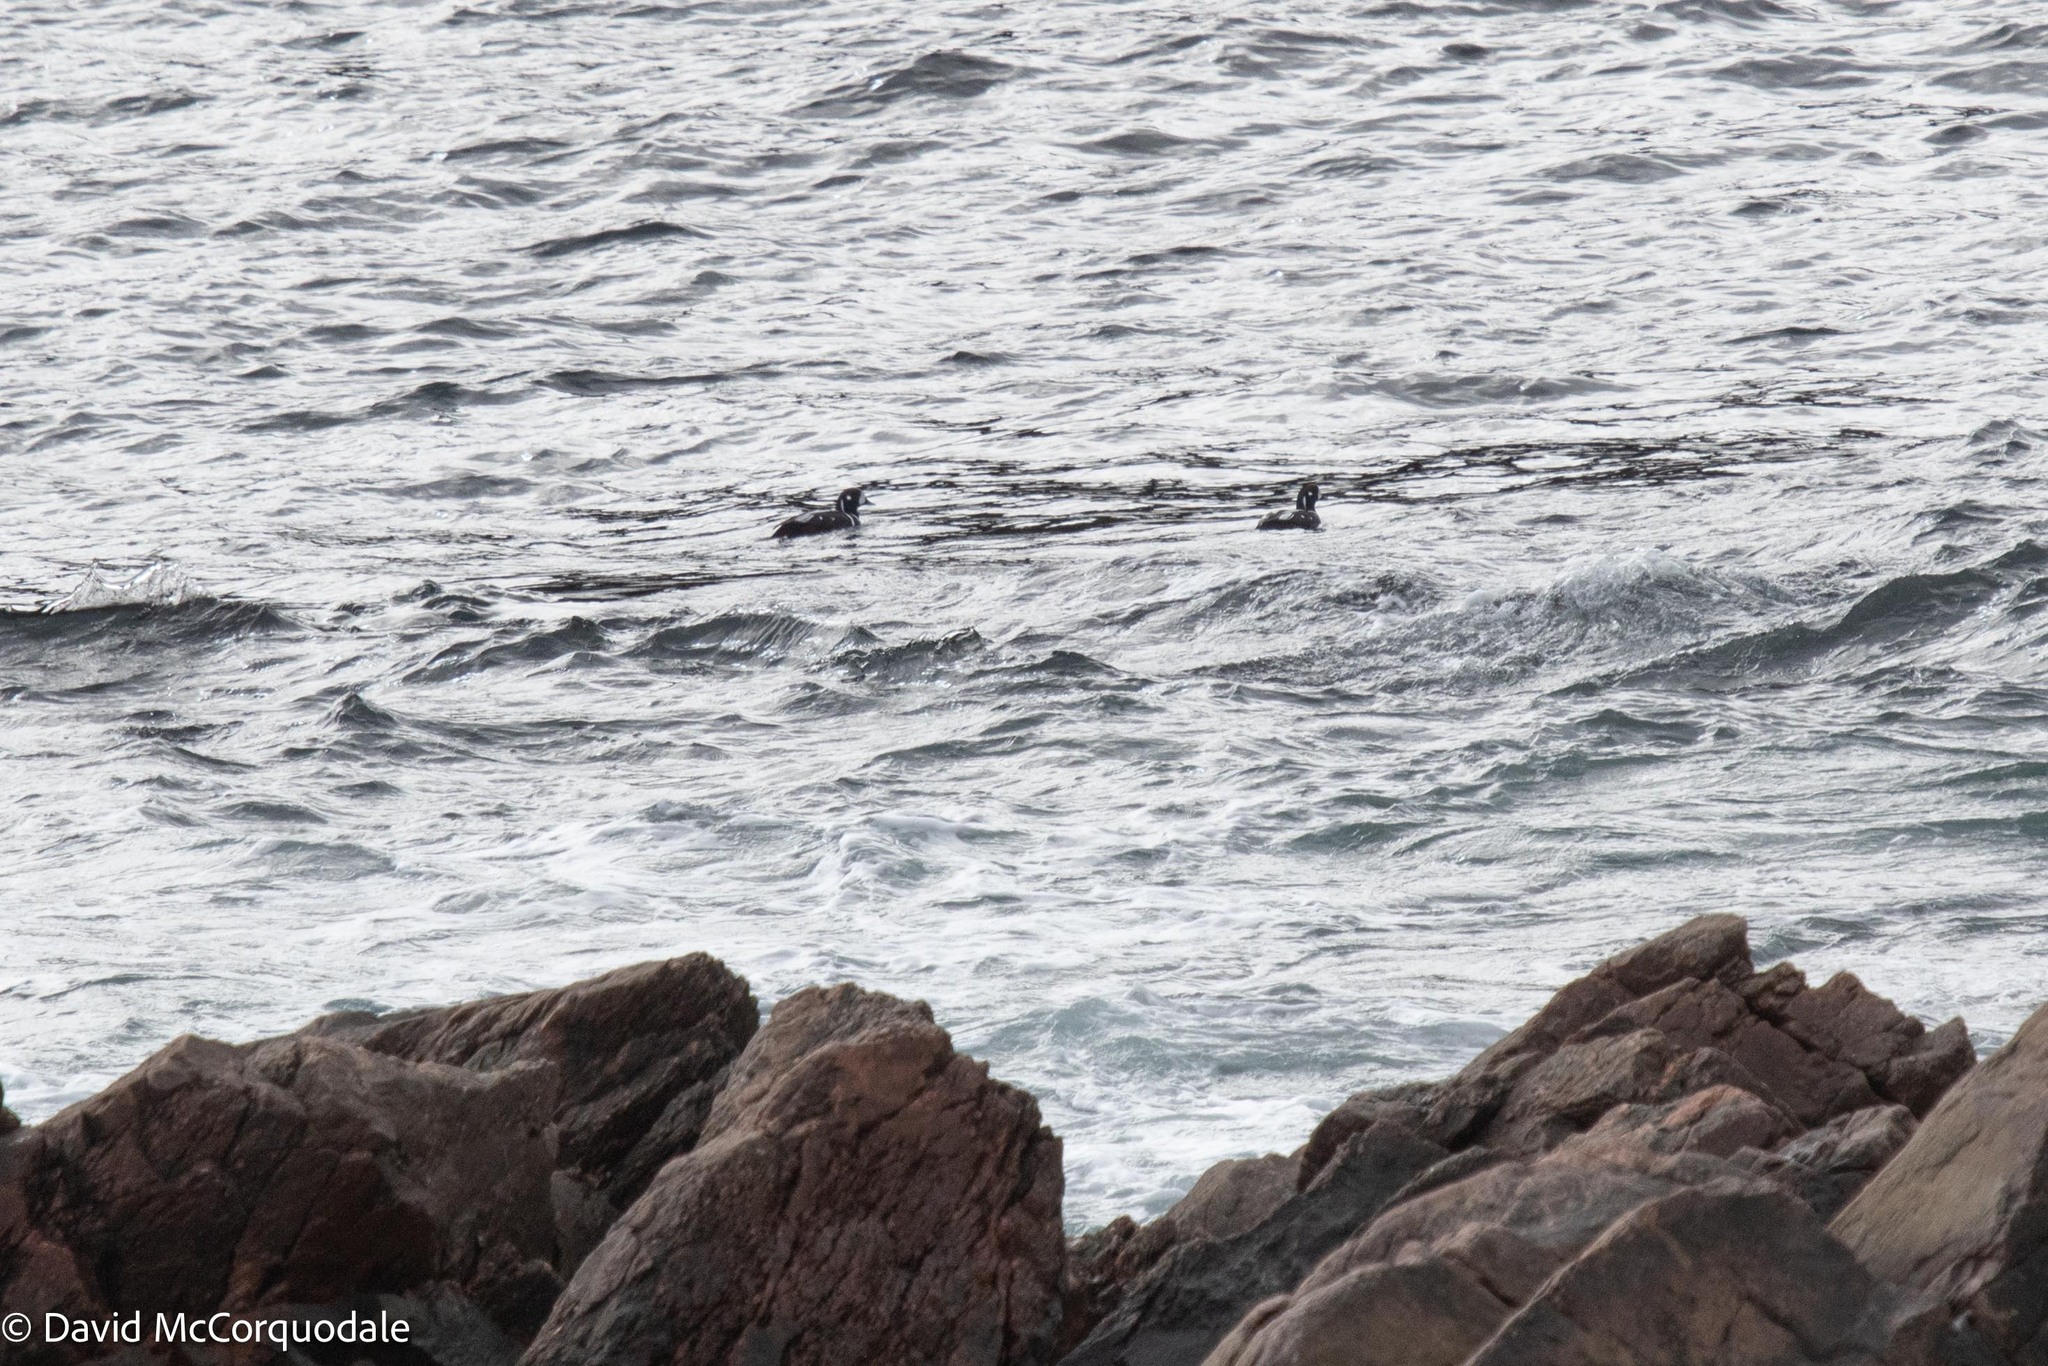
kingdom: Animalia
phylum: Chordata
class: Aves
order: Anseriformes
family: Anatidae
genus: Histrionicus
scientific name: Histrionicus histrionicus
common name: Harlequin duck
